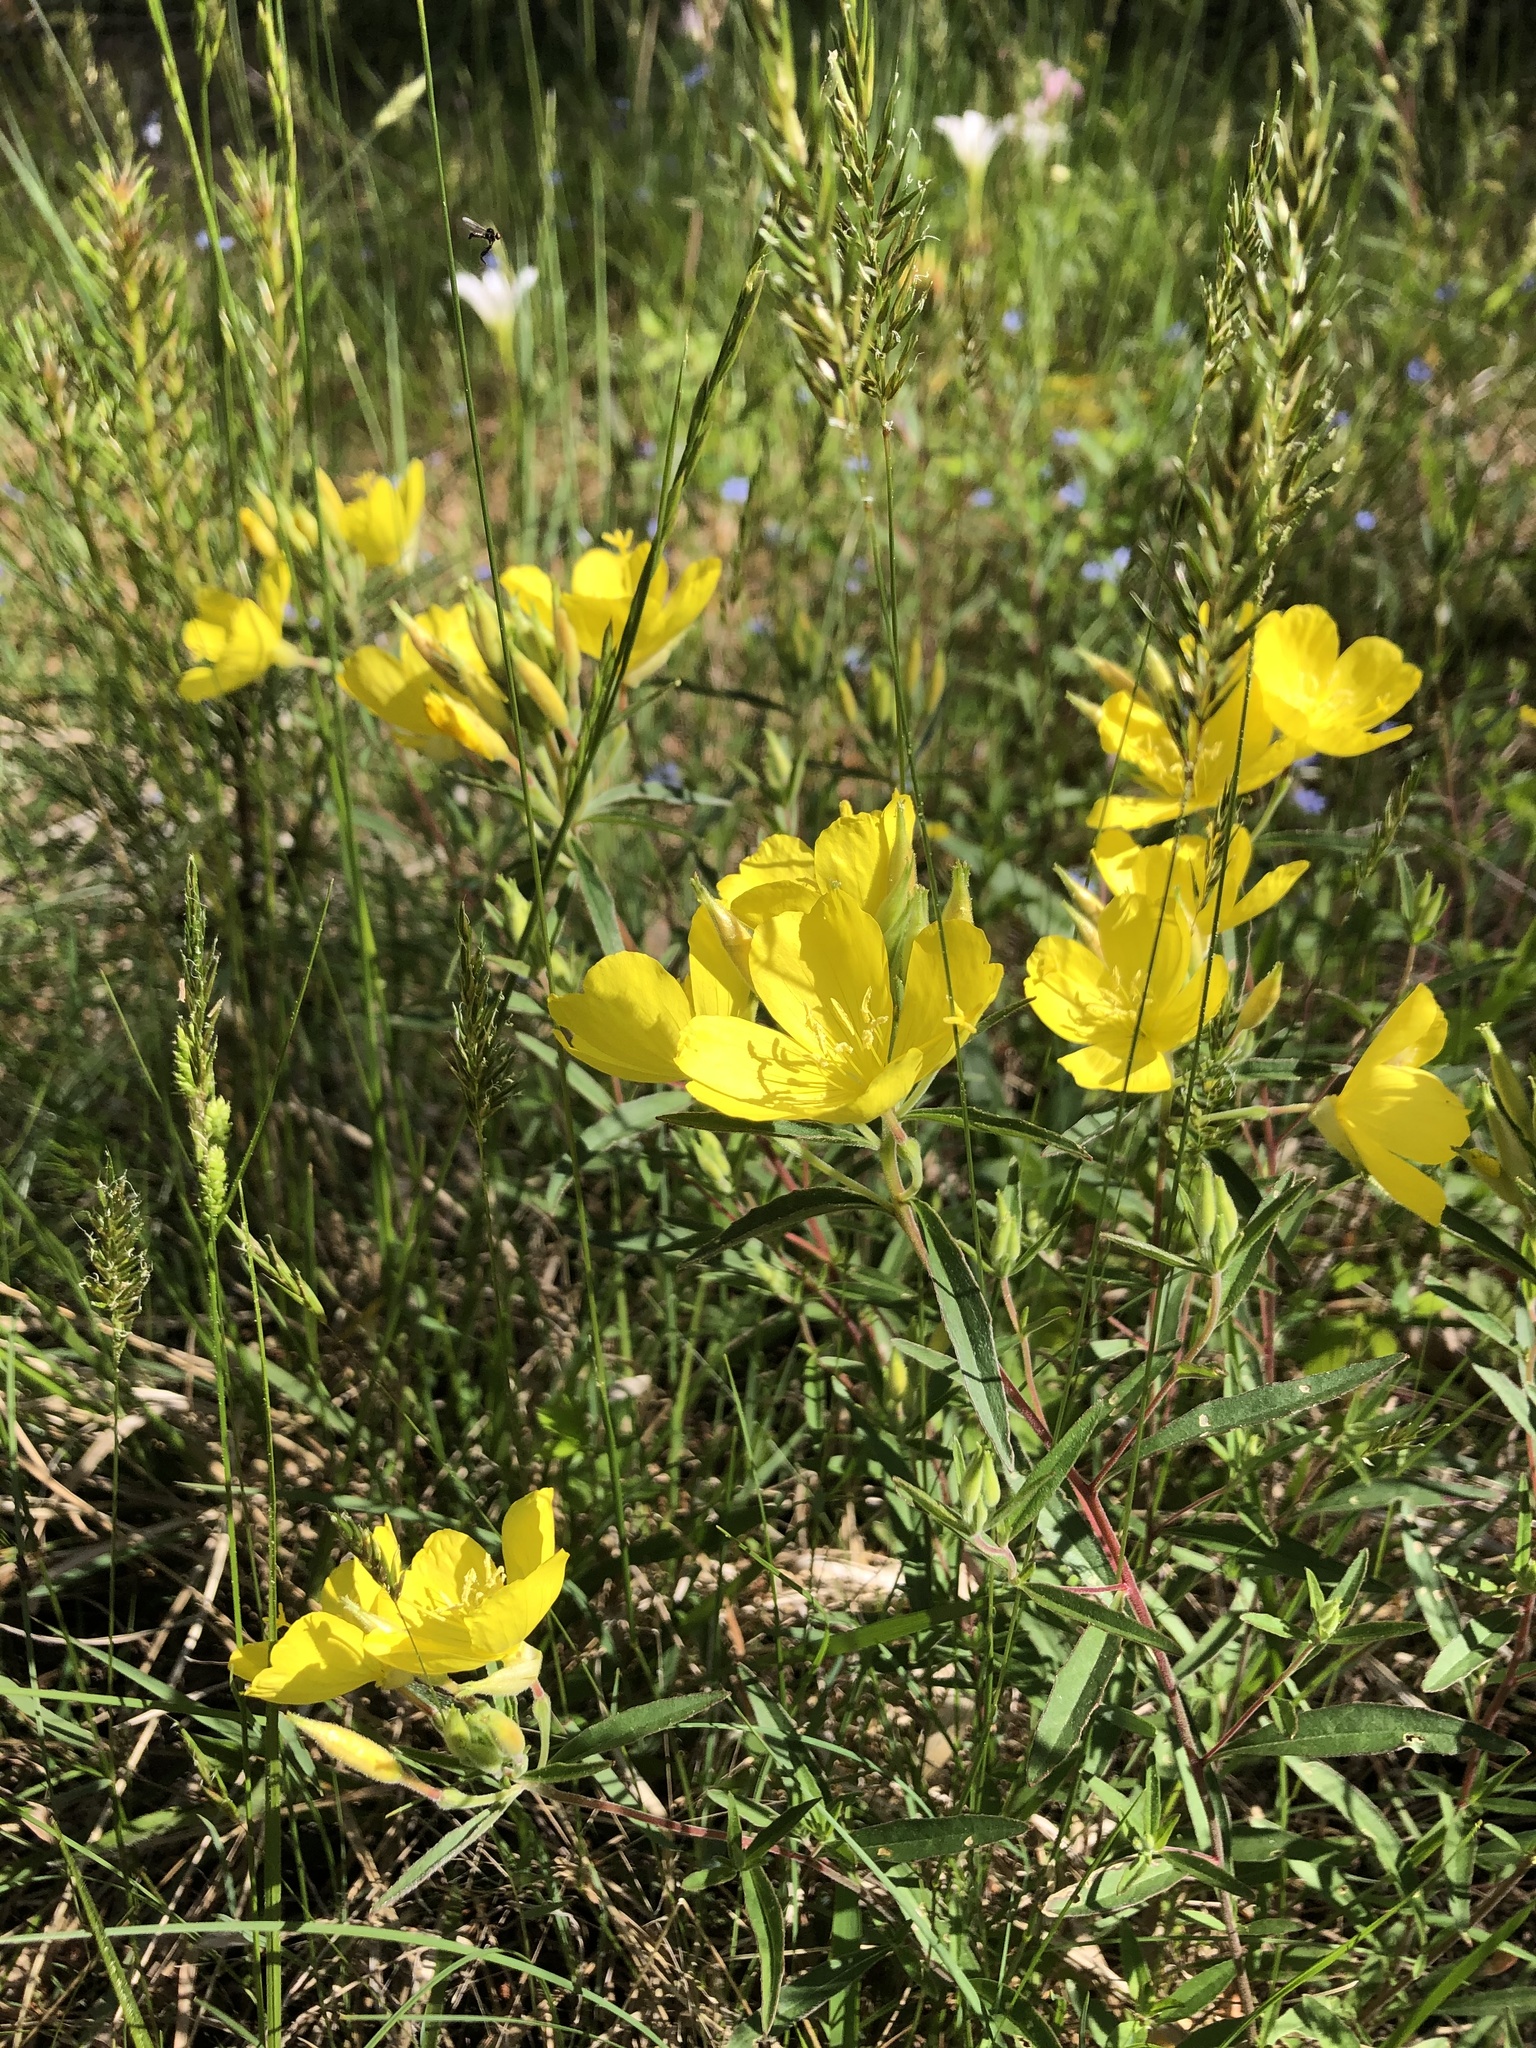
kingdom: Plantae
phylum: Tracheophyta
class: Magnoliopsida
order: Myrtales
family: Onagraceae
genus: Oenothera
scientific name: Oenothera fruticosa
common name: Southern sundrops
